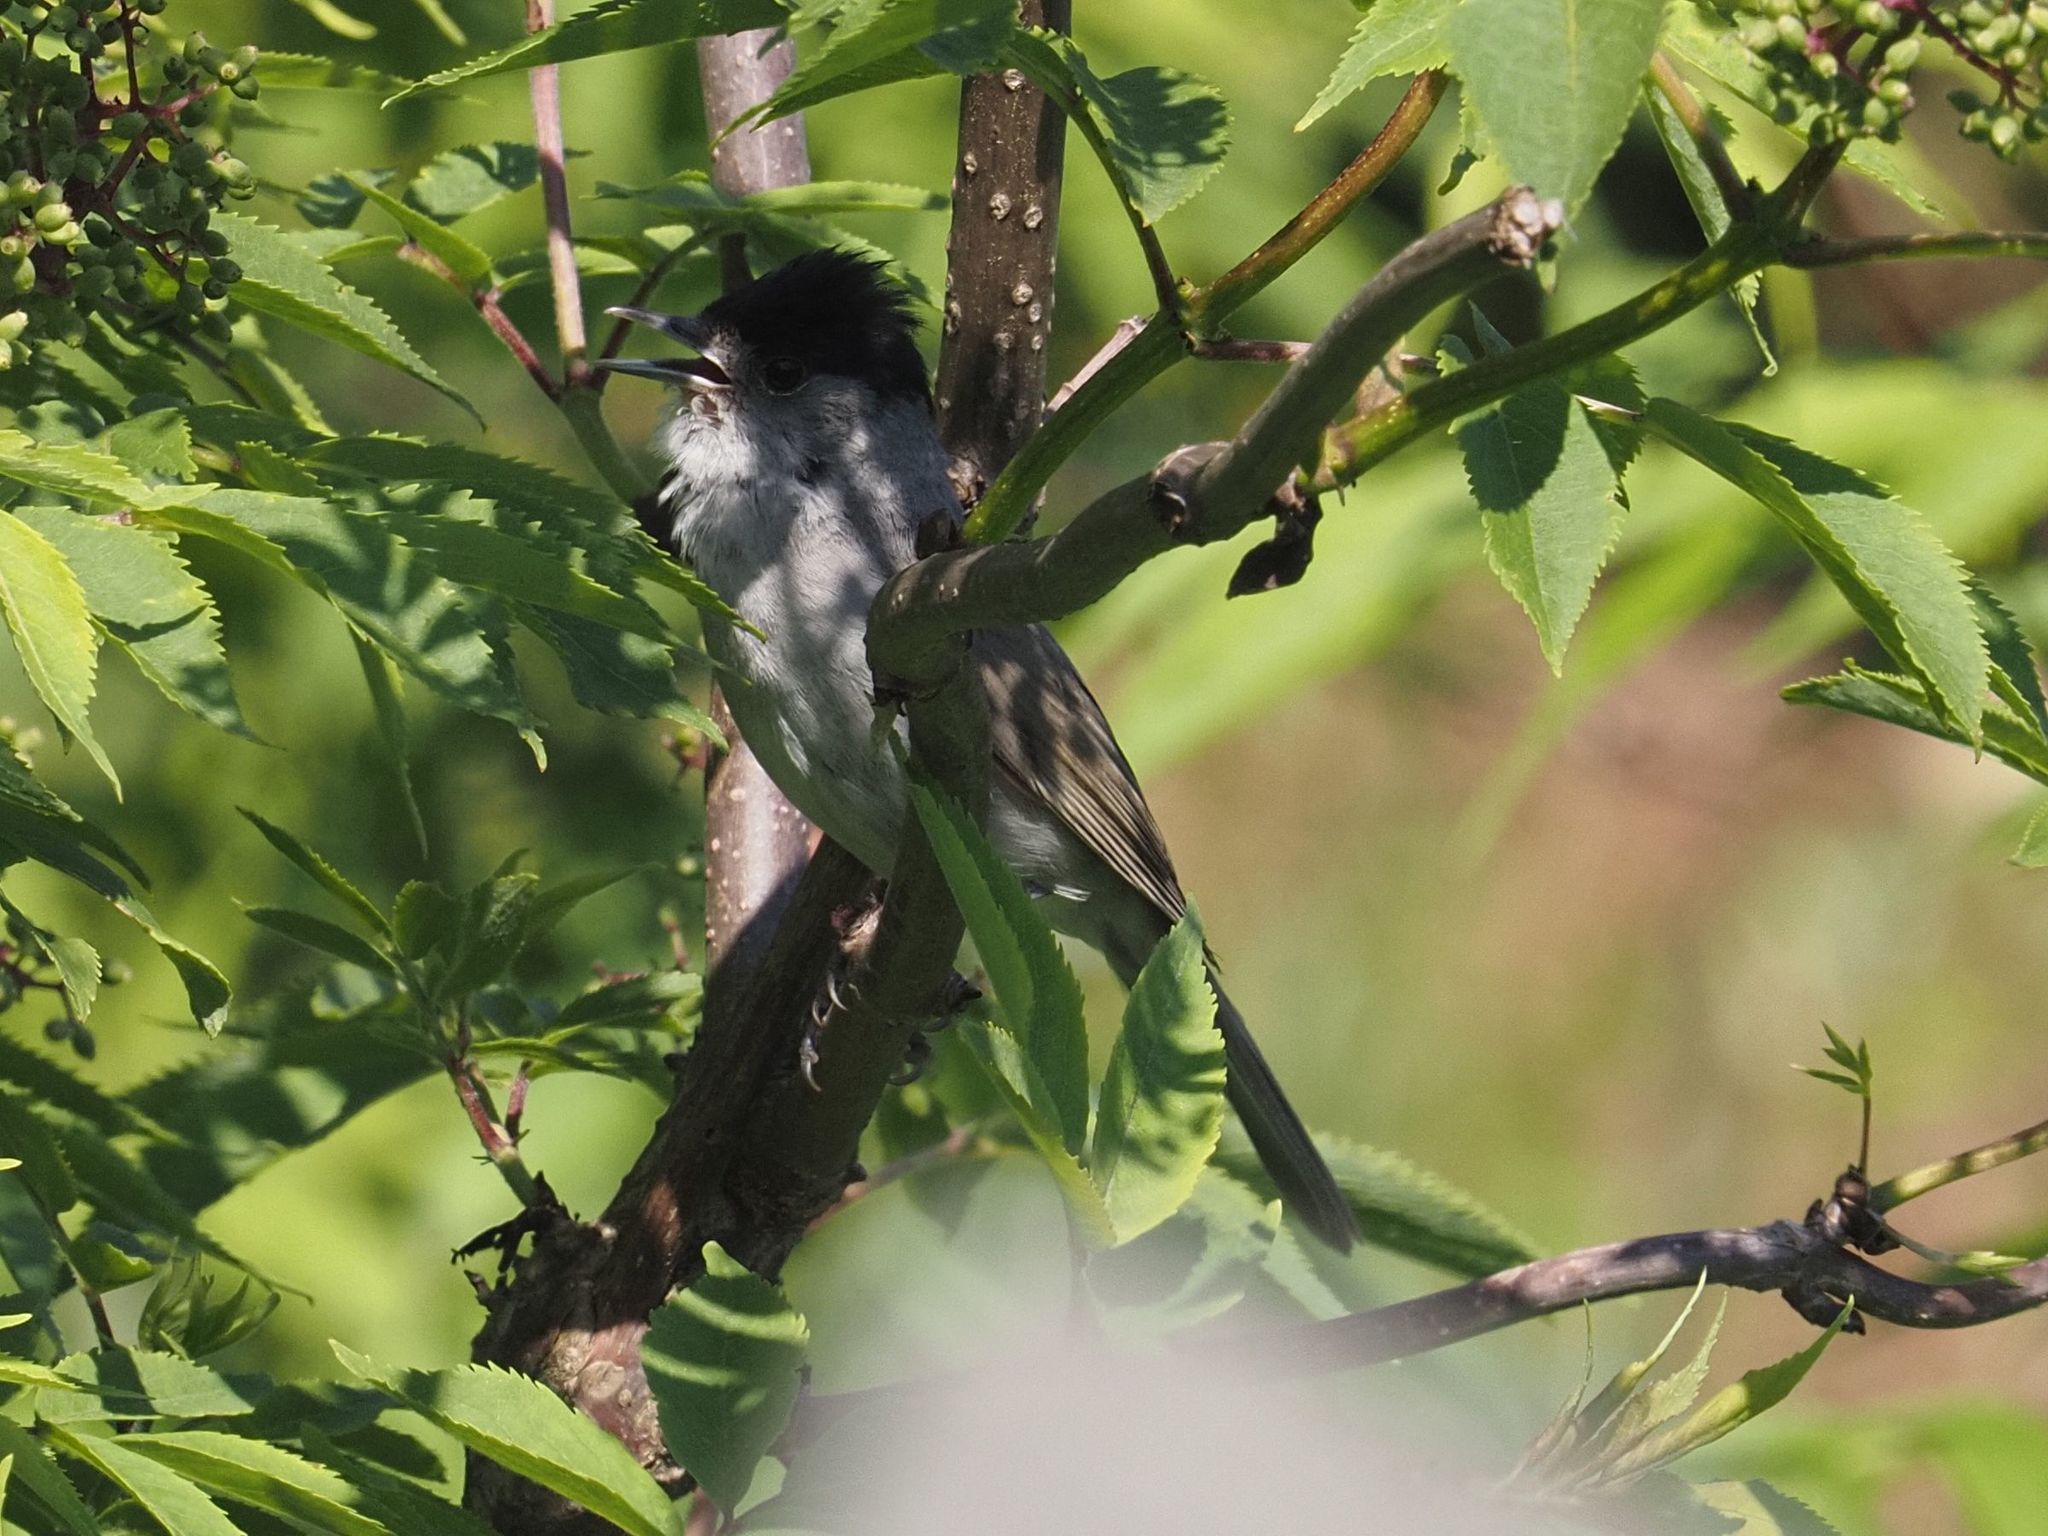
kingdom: Animalia
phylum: Chordata
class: Aves
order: Passeriformes
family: Sylviidae
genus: Sylvia
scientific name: Sylvia atricapilla
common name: Eurasian blackcap
